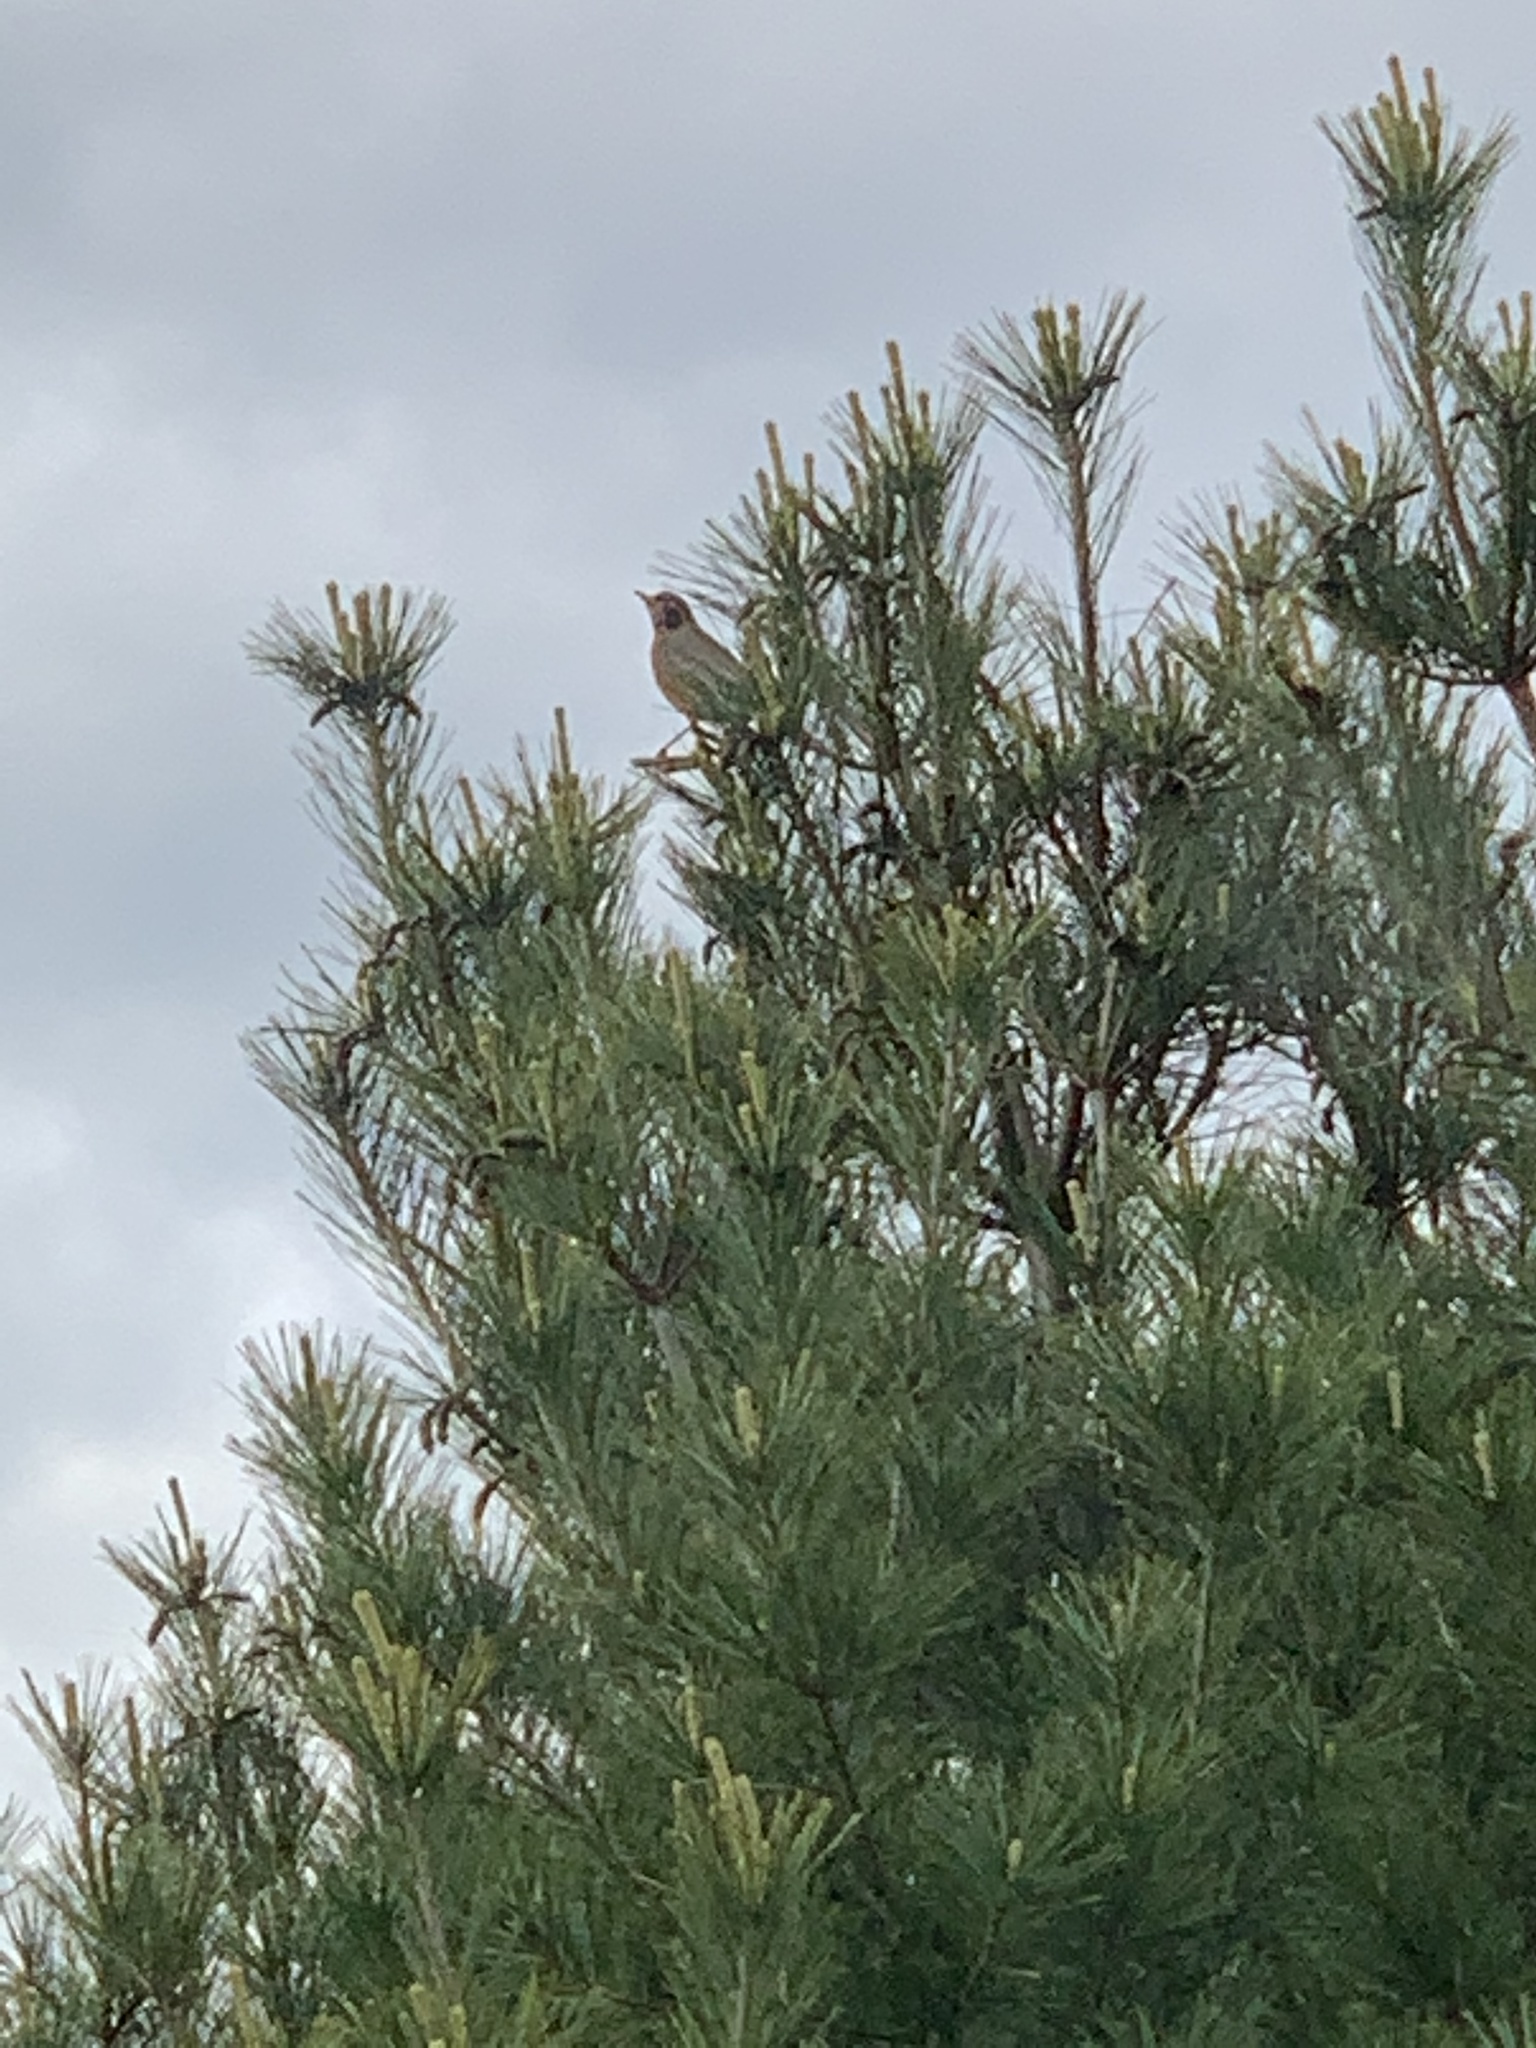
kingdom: Animalia
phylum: Chordata
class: Aves
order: Passeriformes
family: Turdidae
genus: Turdus
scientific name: Turdus migratorius
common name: American robin
